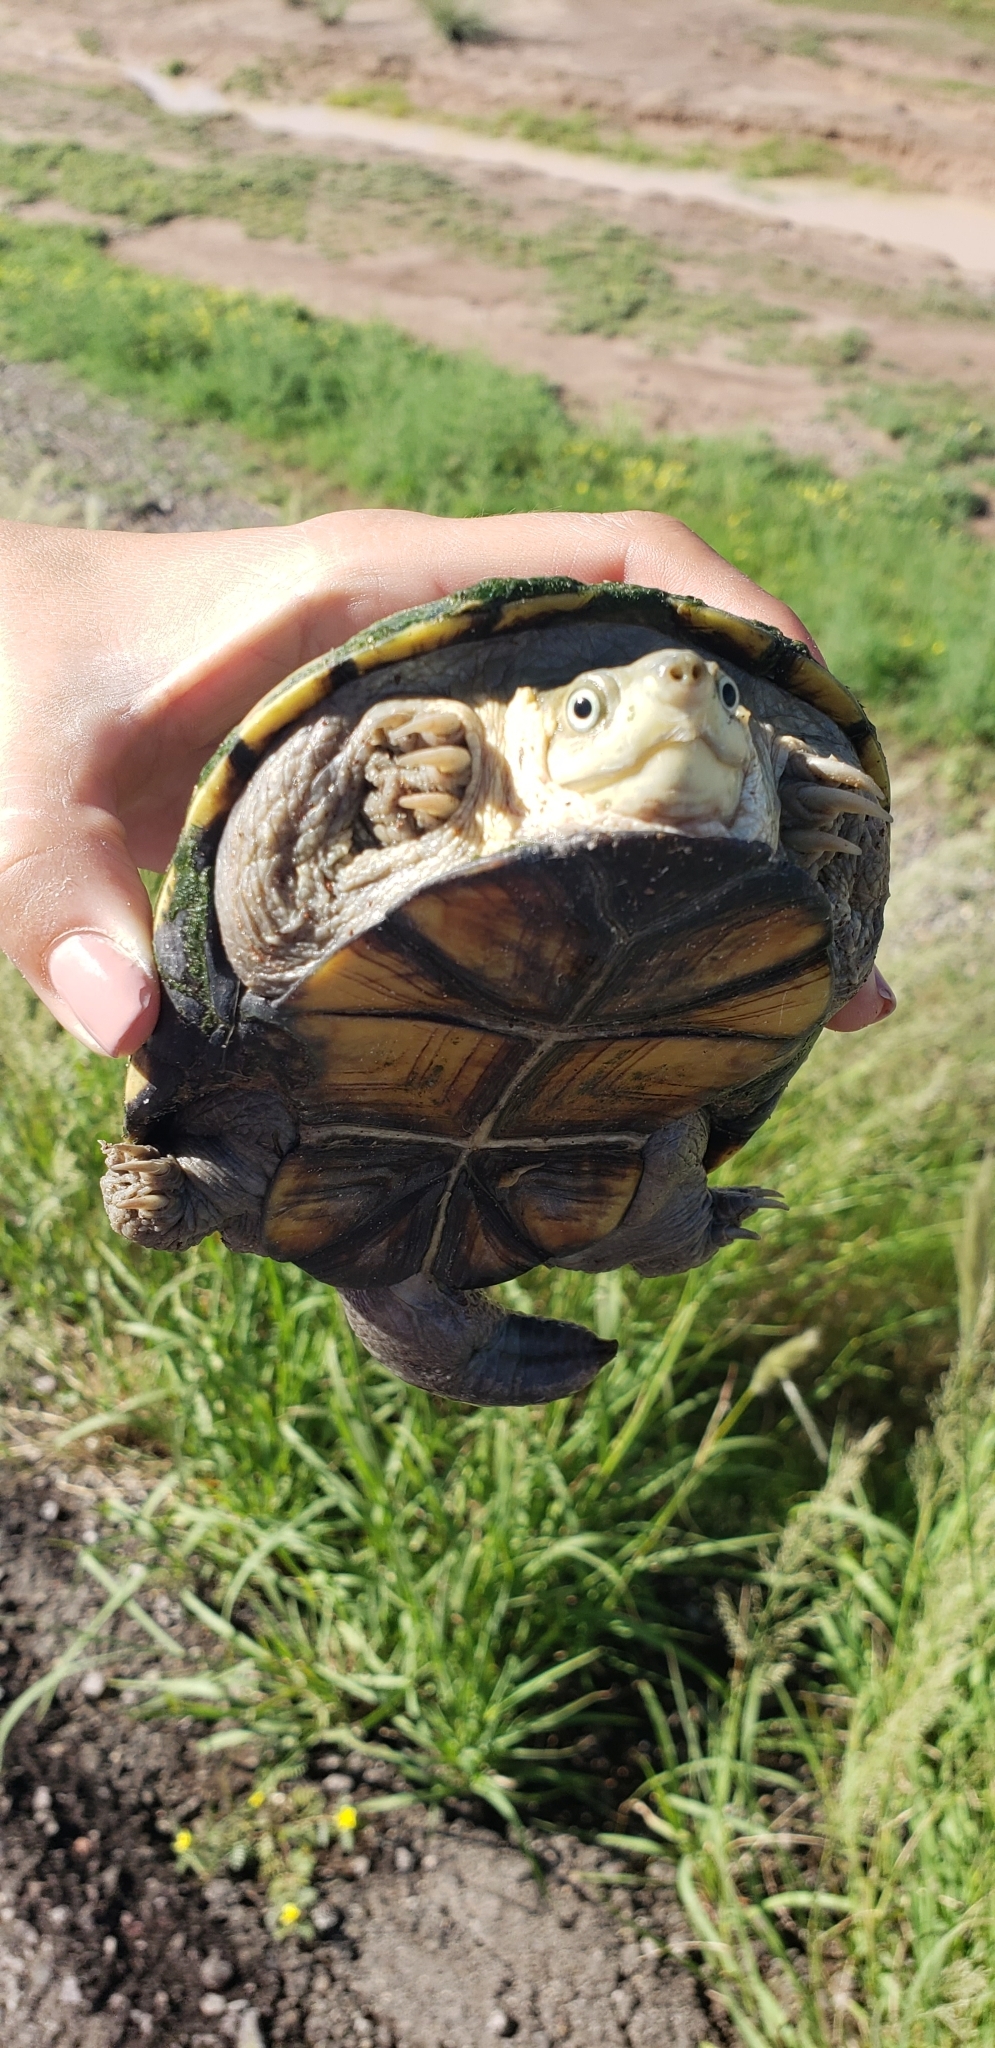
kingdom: Animalia
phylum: Chordata
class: Testudines
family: Kinosternidae
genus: Kinosternon
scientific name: Kinosternon flavescens
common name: Yellow mud turtle
